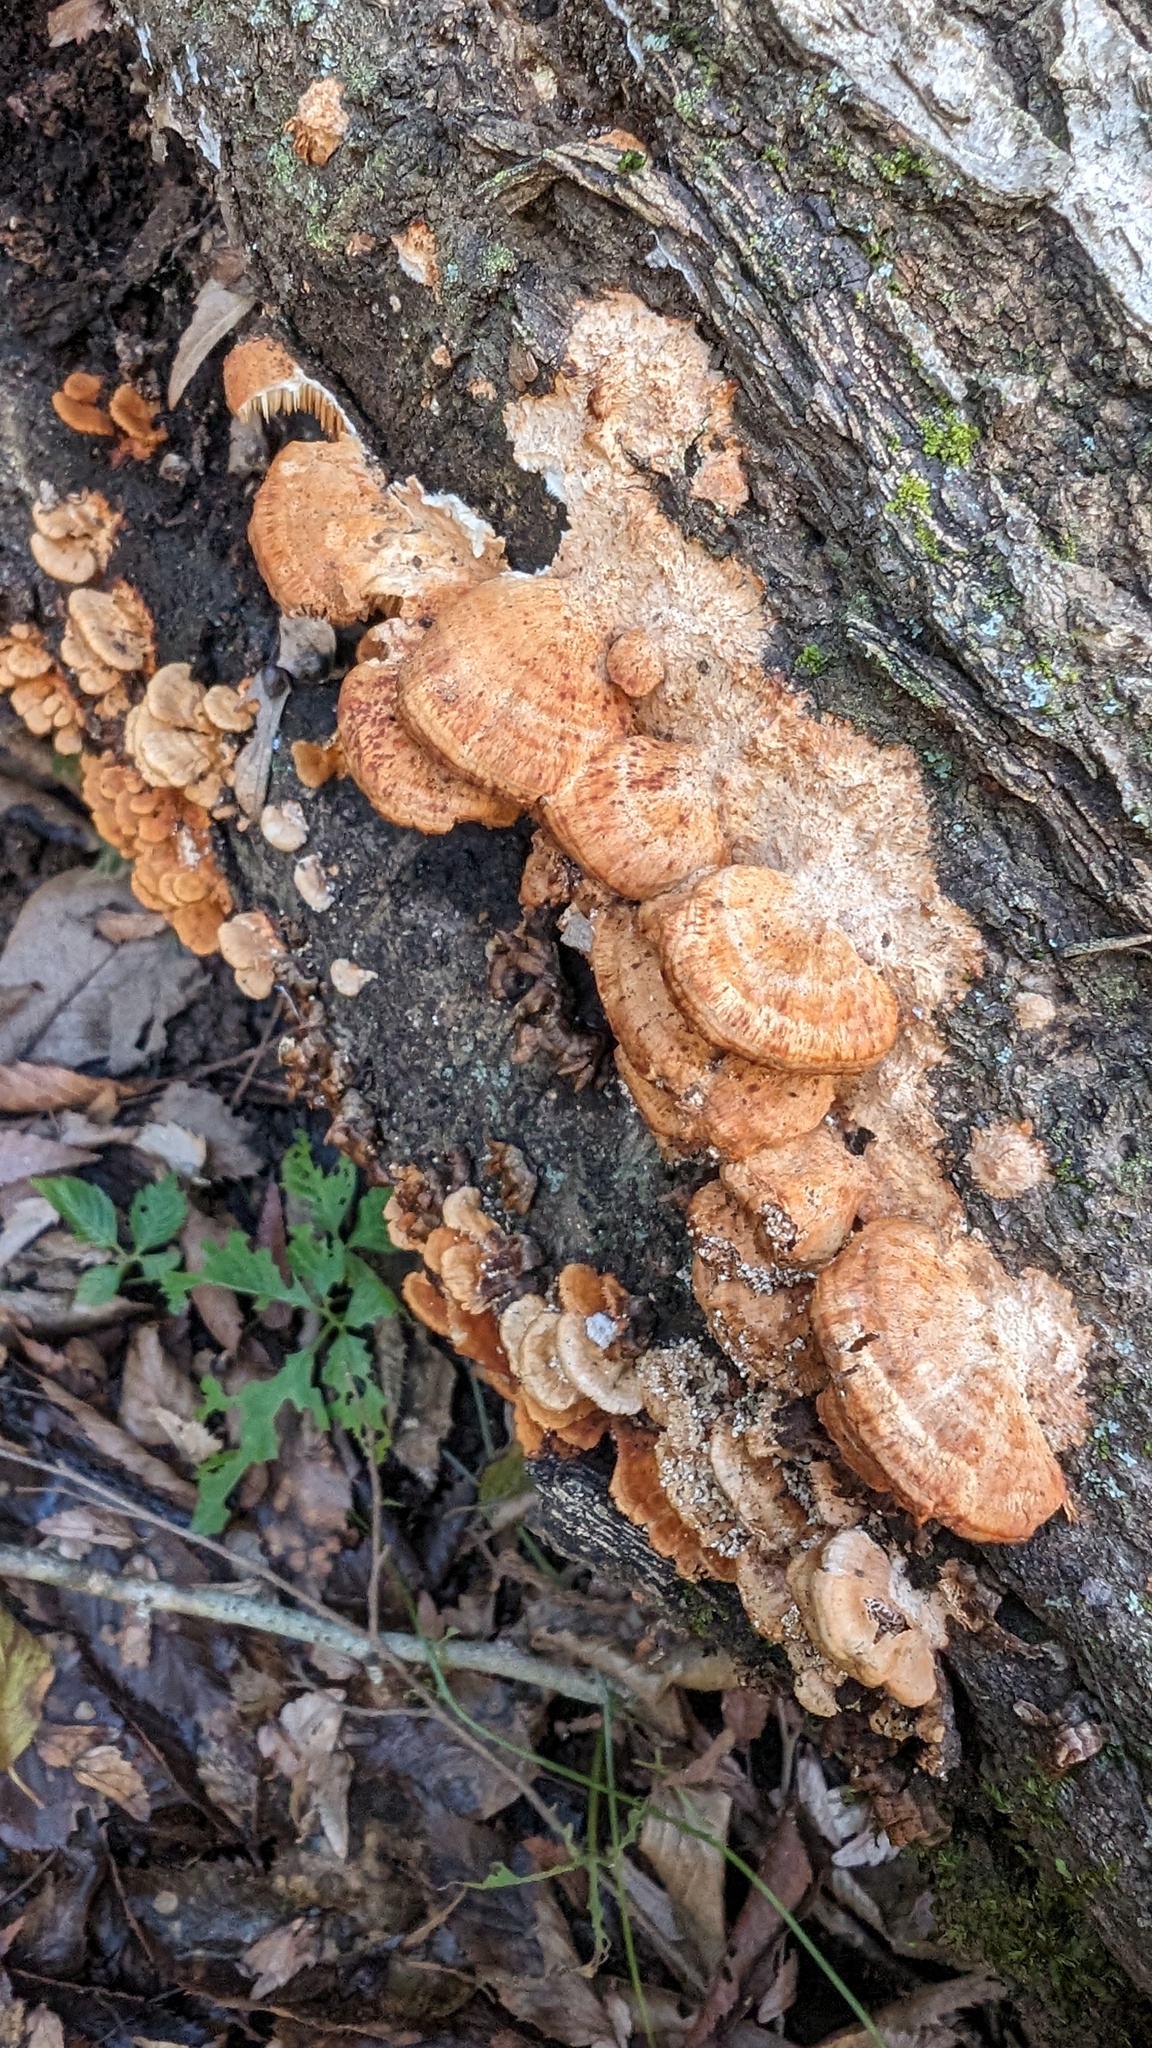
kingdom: Fungi
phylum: Basidiomycota
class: Agaricomycetes
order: Polyporales
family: Irpicaceae
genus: Irpex
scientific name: Irpex consors
